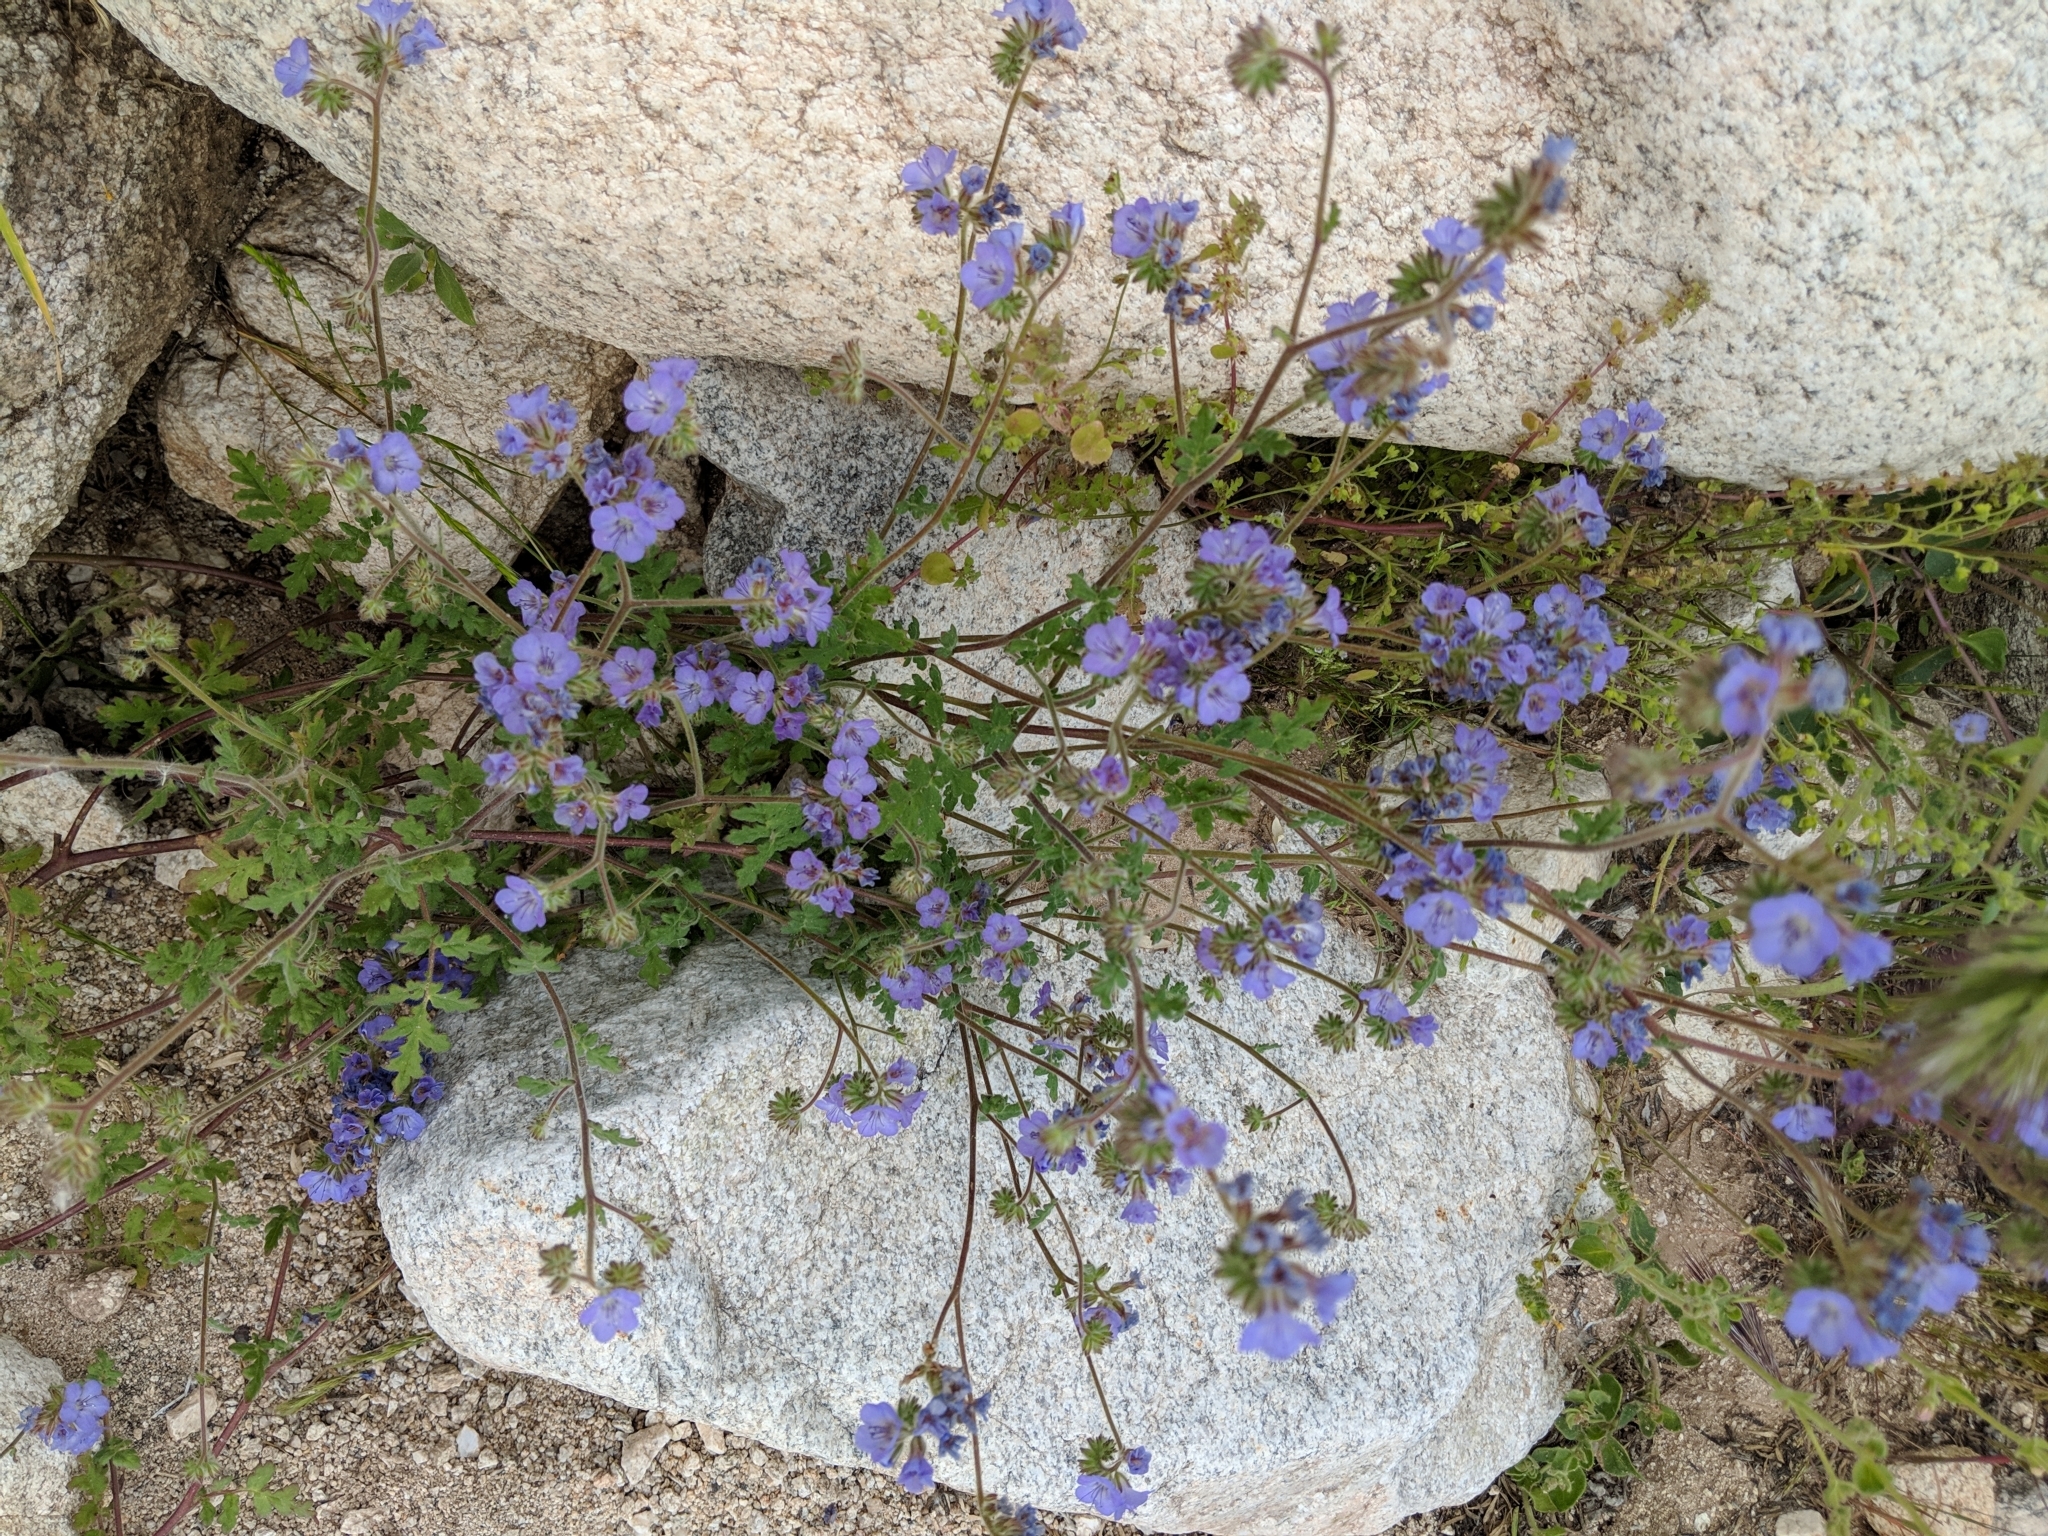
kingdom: Plantae
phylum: Tracheophyta
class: Magnoliopsida
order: Boraginales
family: Hydrophyllaceae
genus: Phacelia
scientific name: Phacelia distans
